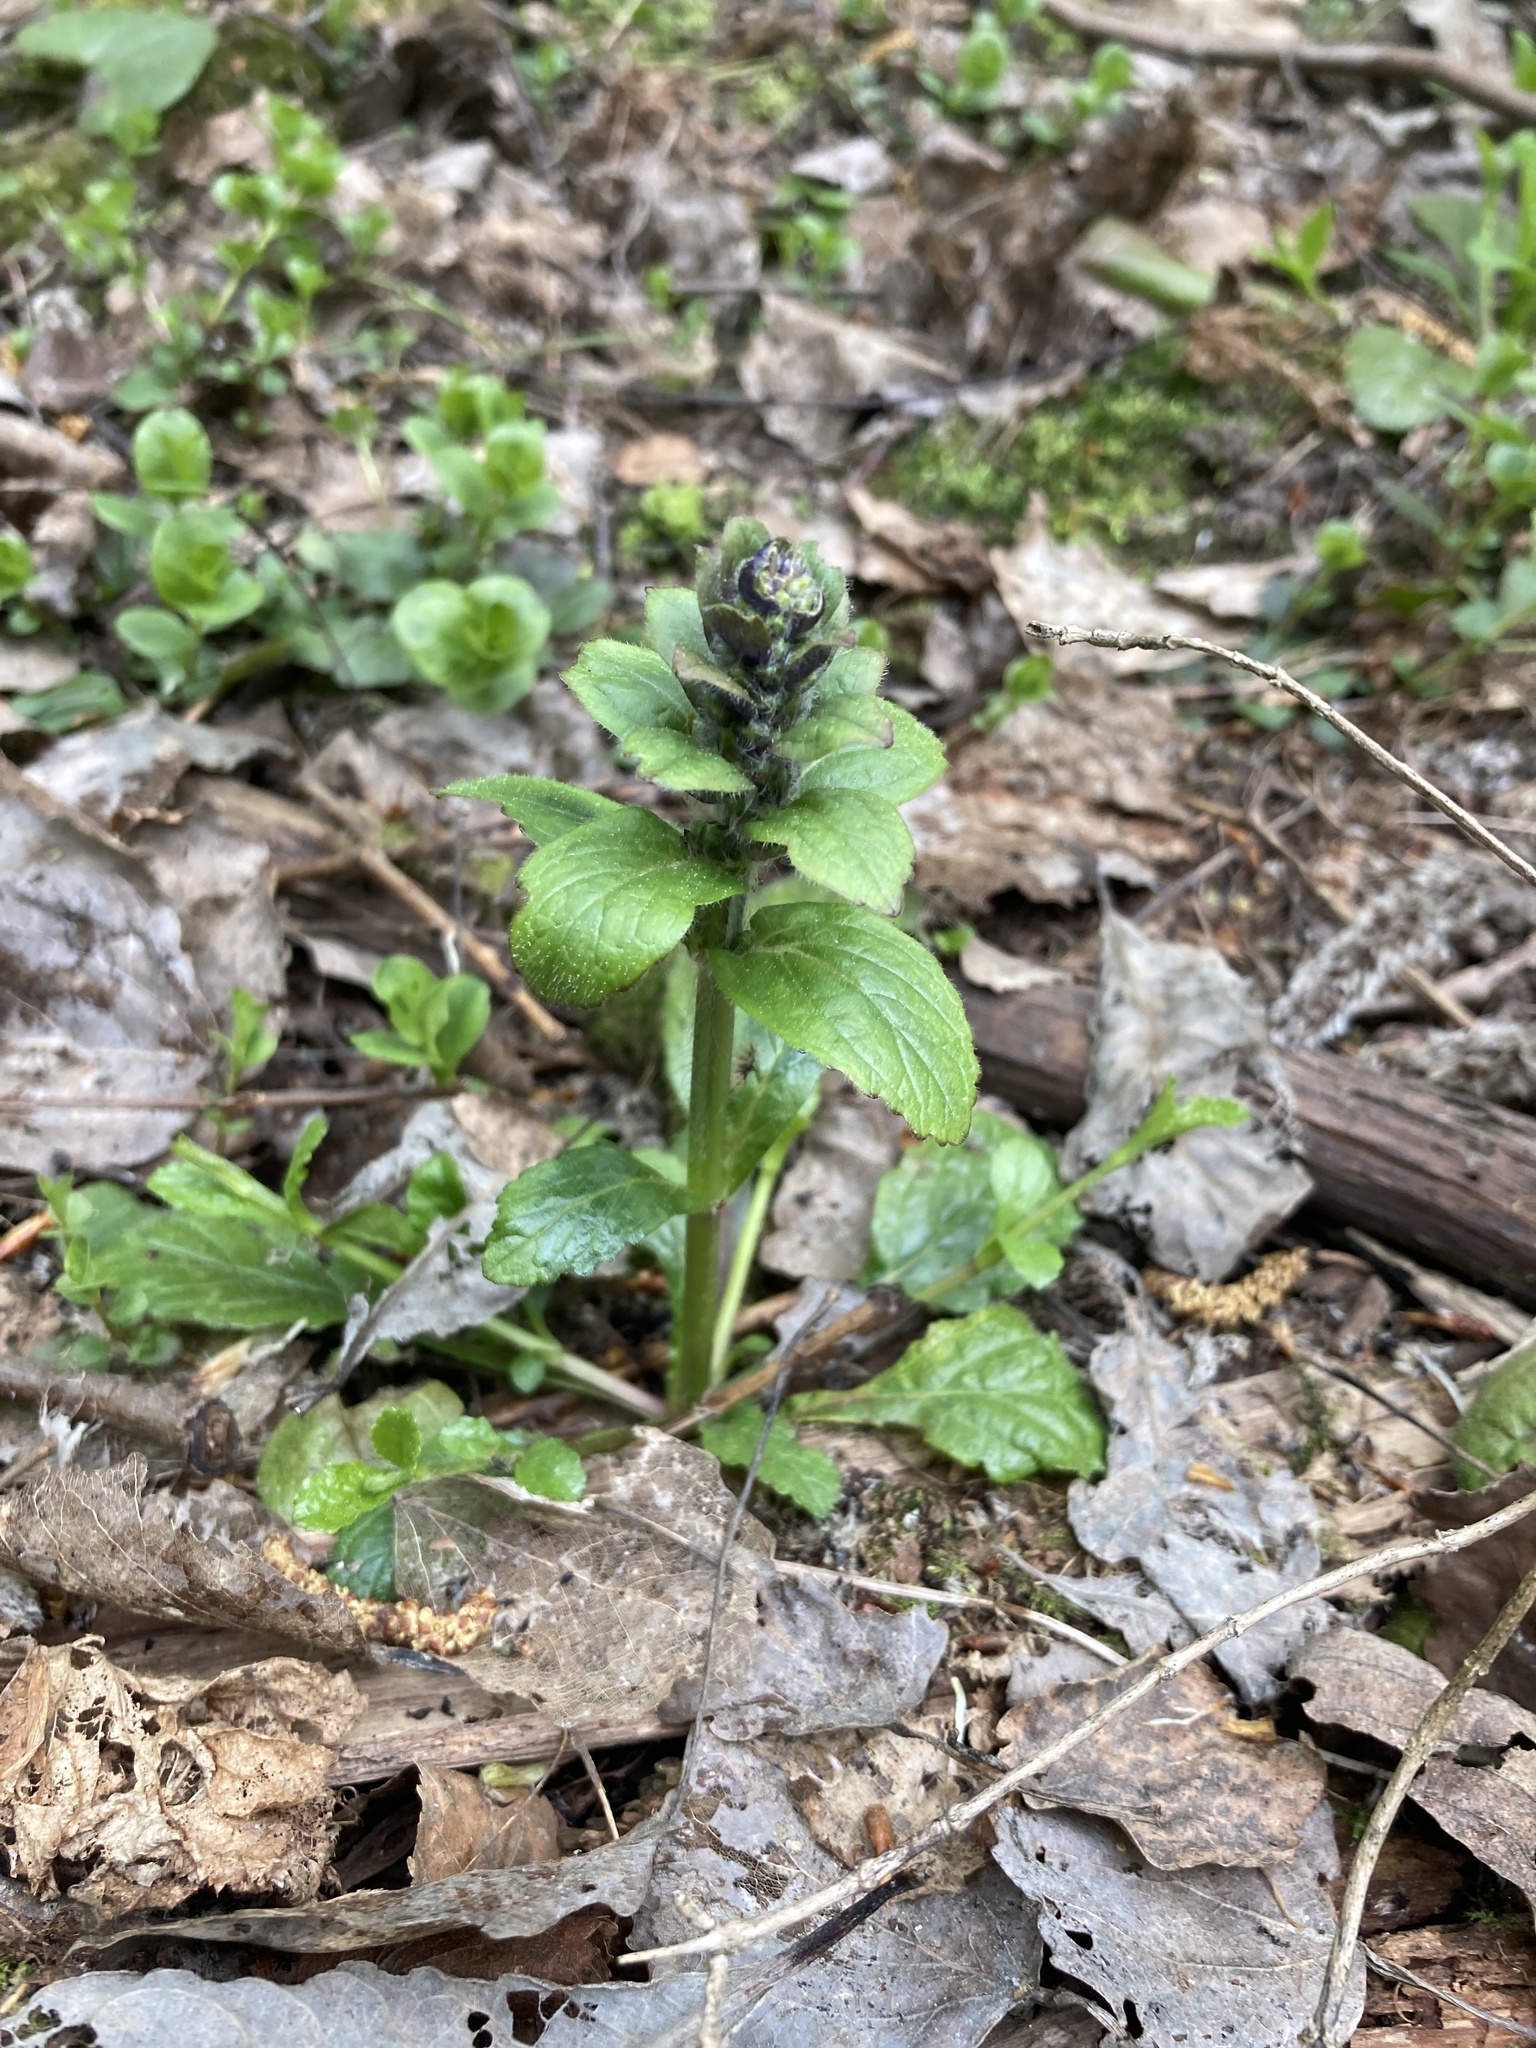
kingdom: Plantae
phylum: Tracheophyta
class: Magnoliopsida
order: Lamiales
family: Lamiaceae
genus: Ajuga
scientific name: Ajuga reptans
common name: Bugle
